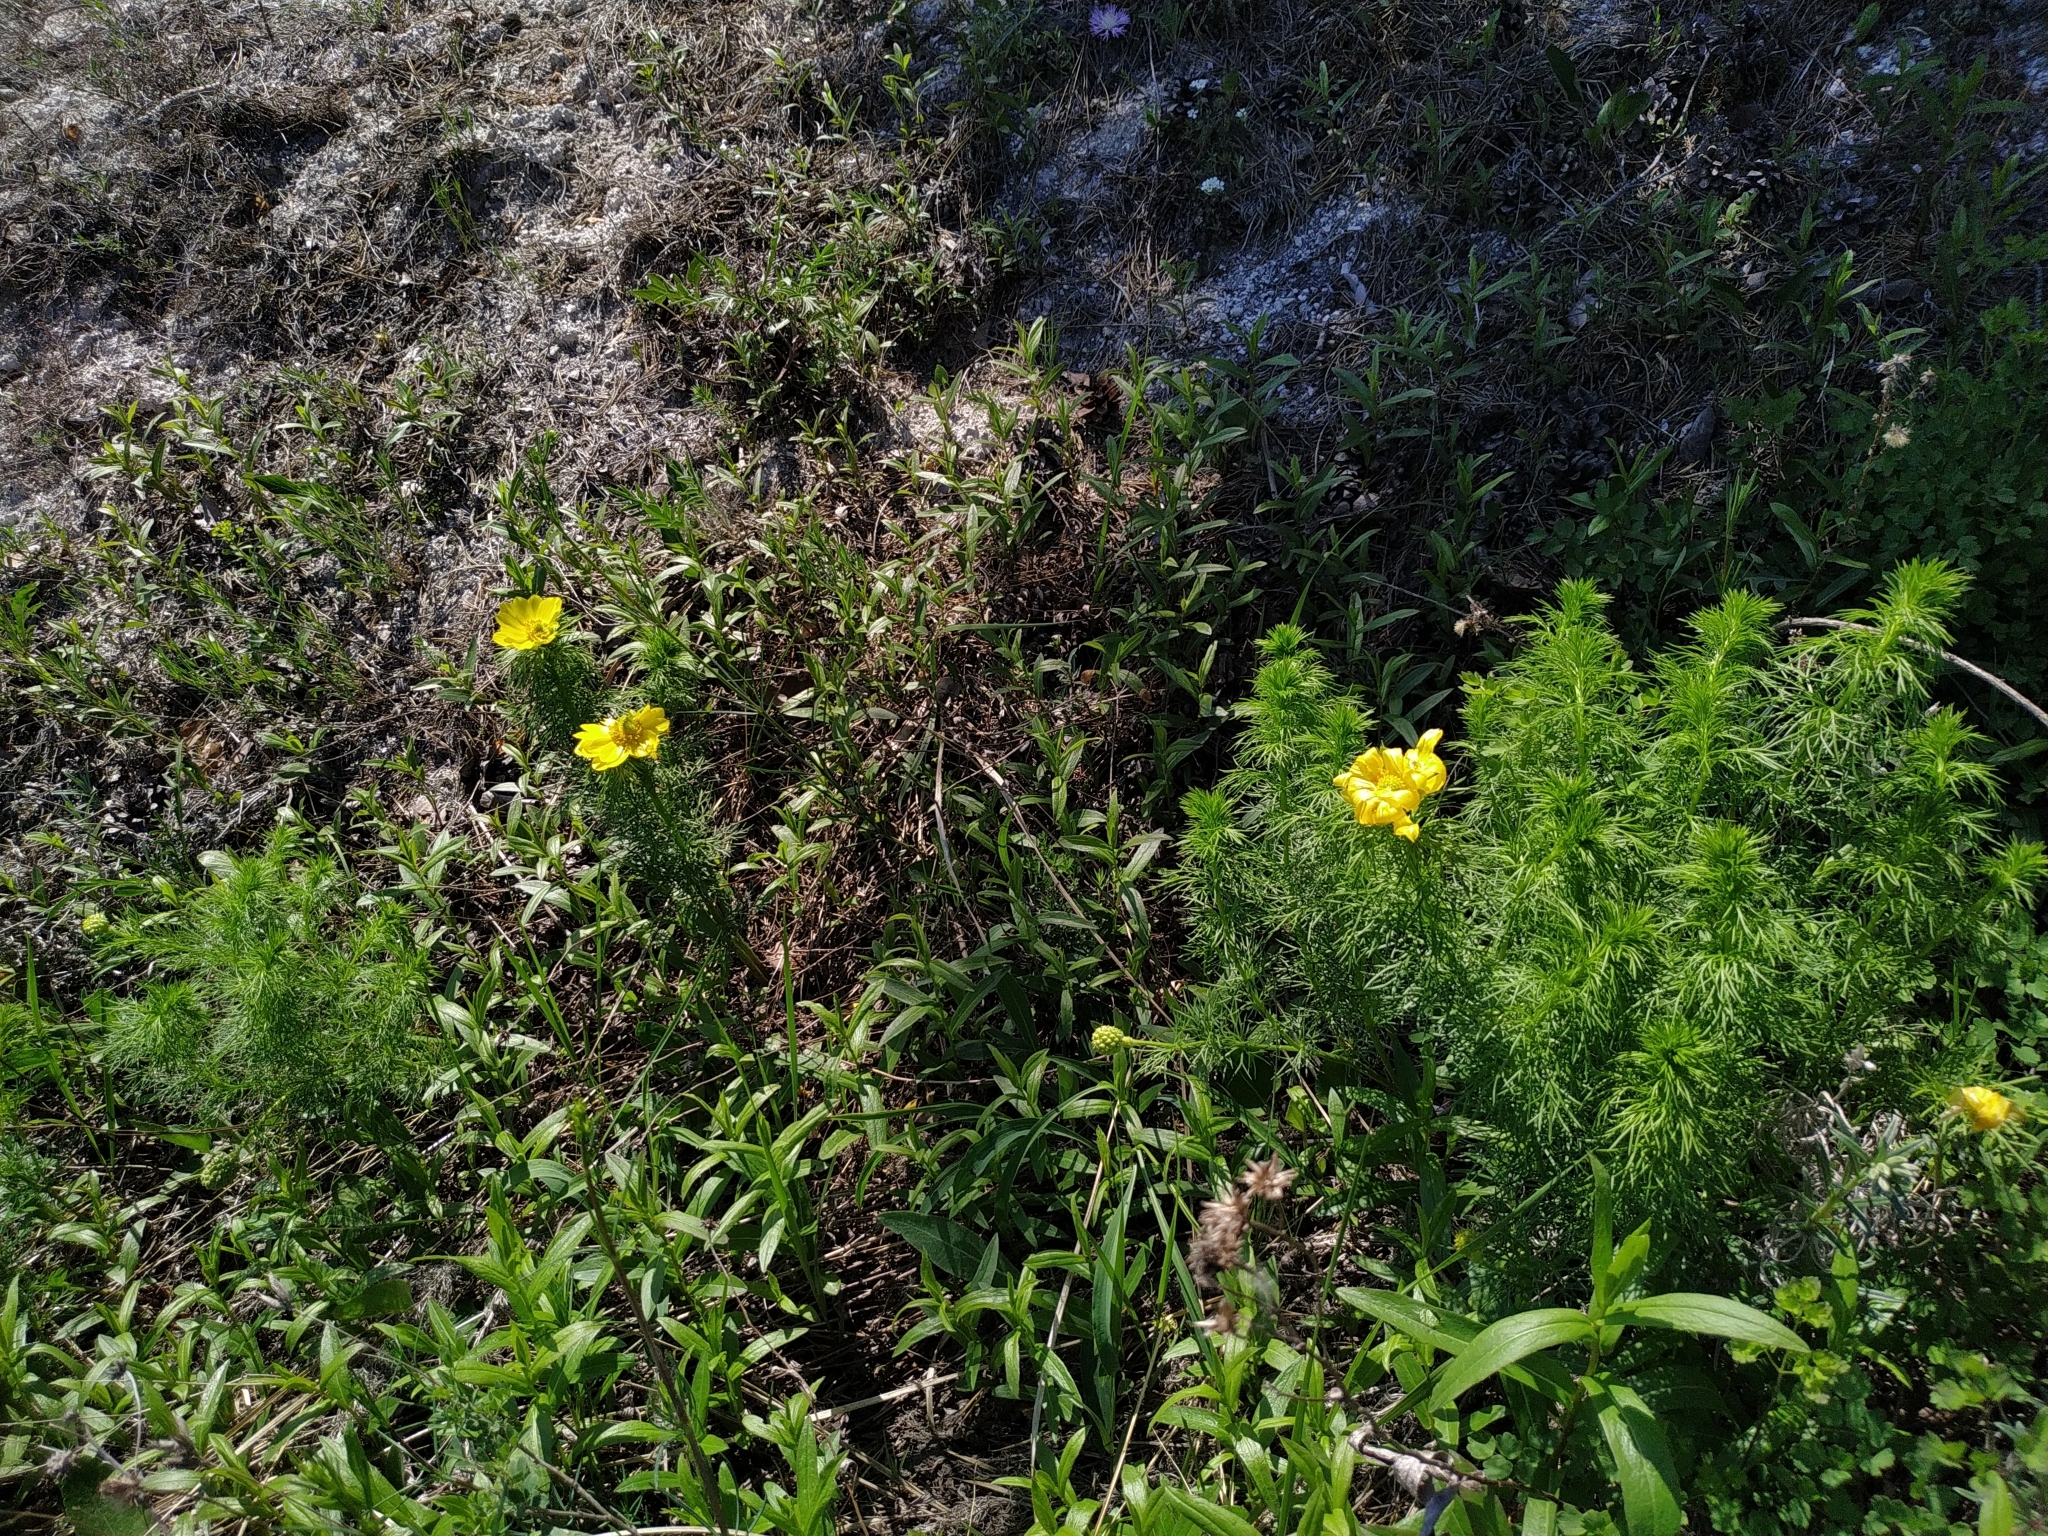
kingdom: Plantae
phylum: Tracheophyta
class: Magnoliopsida
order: Ranunculales
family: Ranunculaceae
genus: Adonis
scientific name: Adonis vernalis
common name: Yellow pheasants-eye
